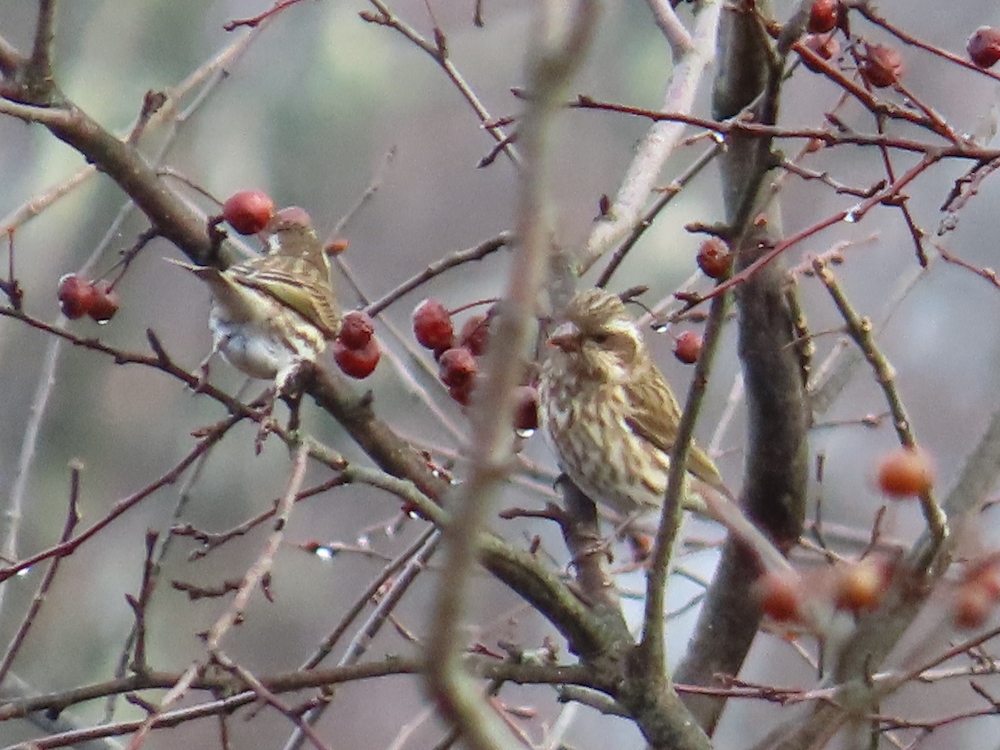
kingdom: Animalia
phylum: Chordata
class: Aves
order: Passeriformes
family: Fringillidae
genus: Haemorhous
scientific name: Haemorhous purpureus
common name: Purple finch
